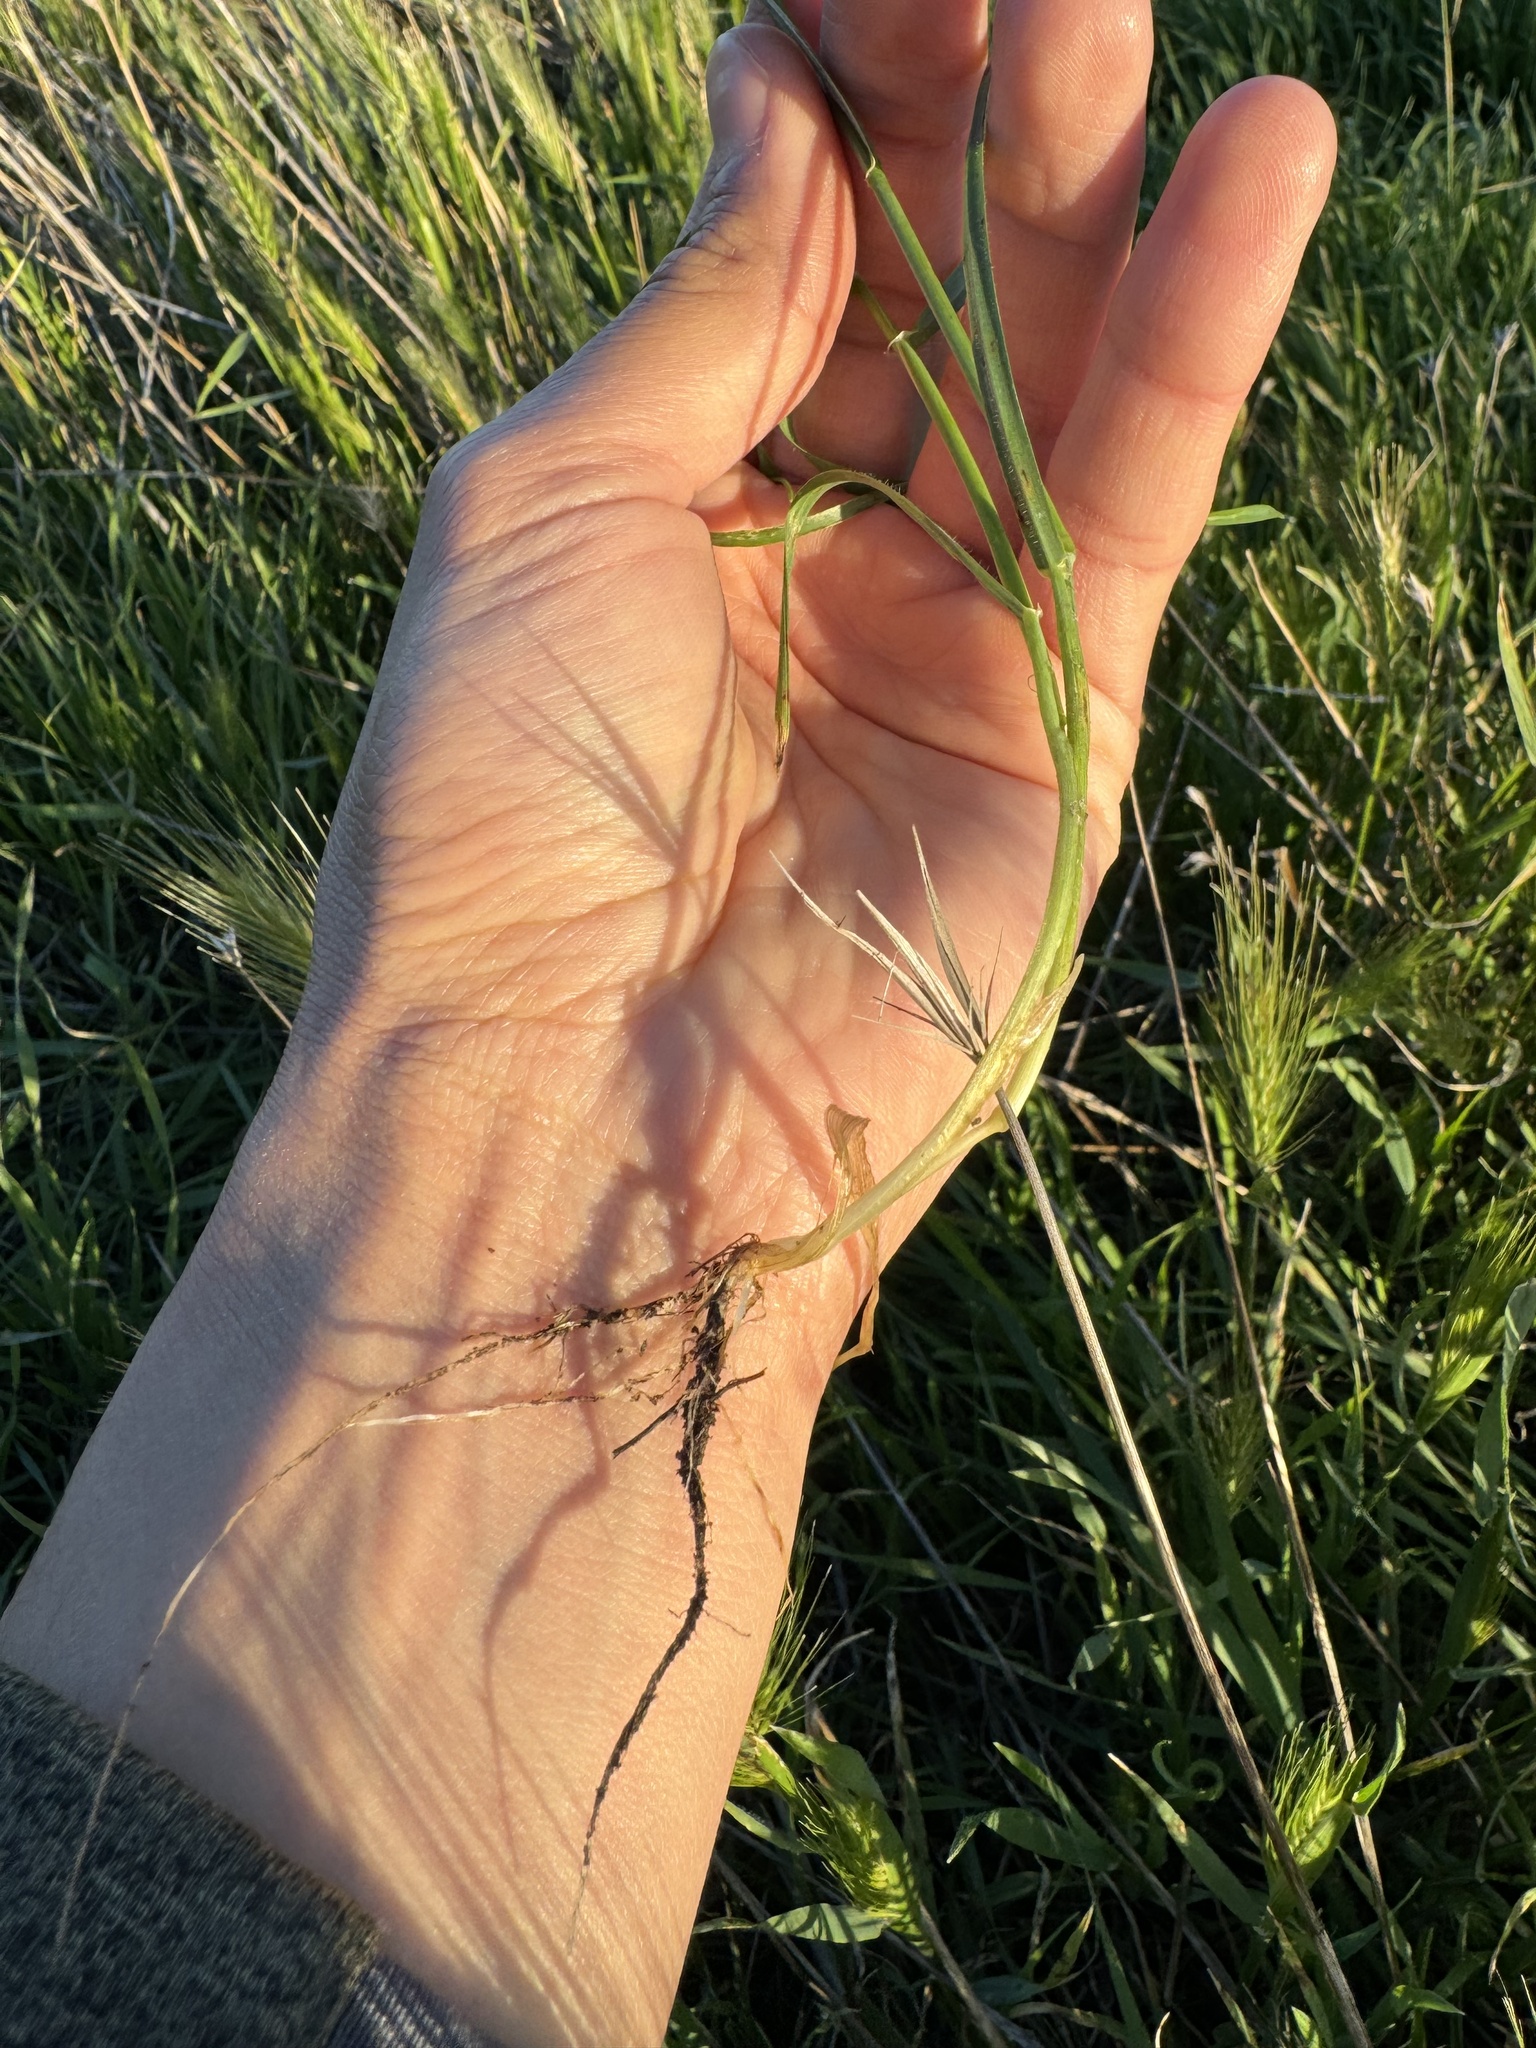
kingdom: Plantae
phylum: Tracheophyta
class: Liliopsida
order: Poales
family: Poaceae
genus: Hordeum
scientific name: Hordeum murinum
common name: Wall barley
